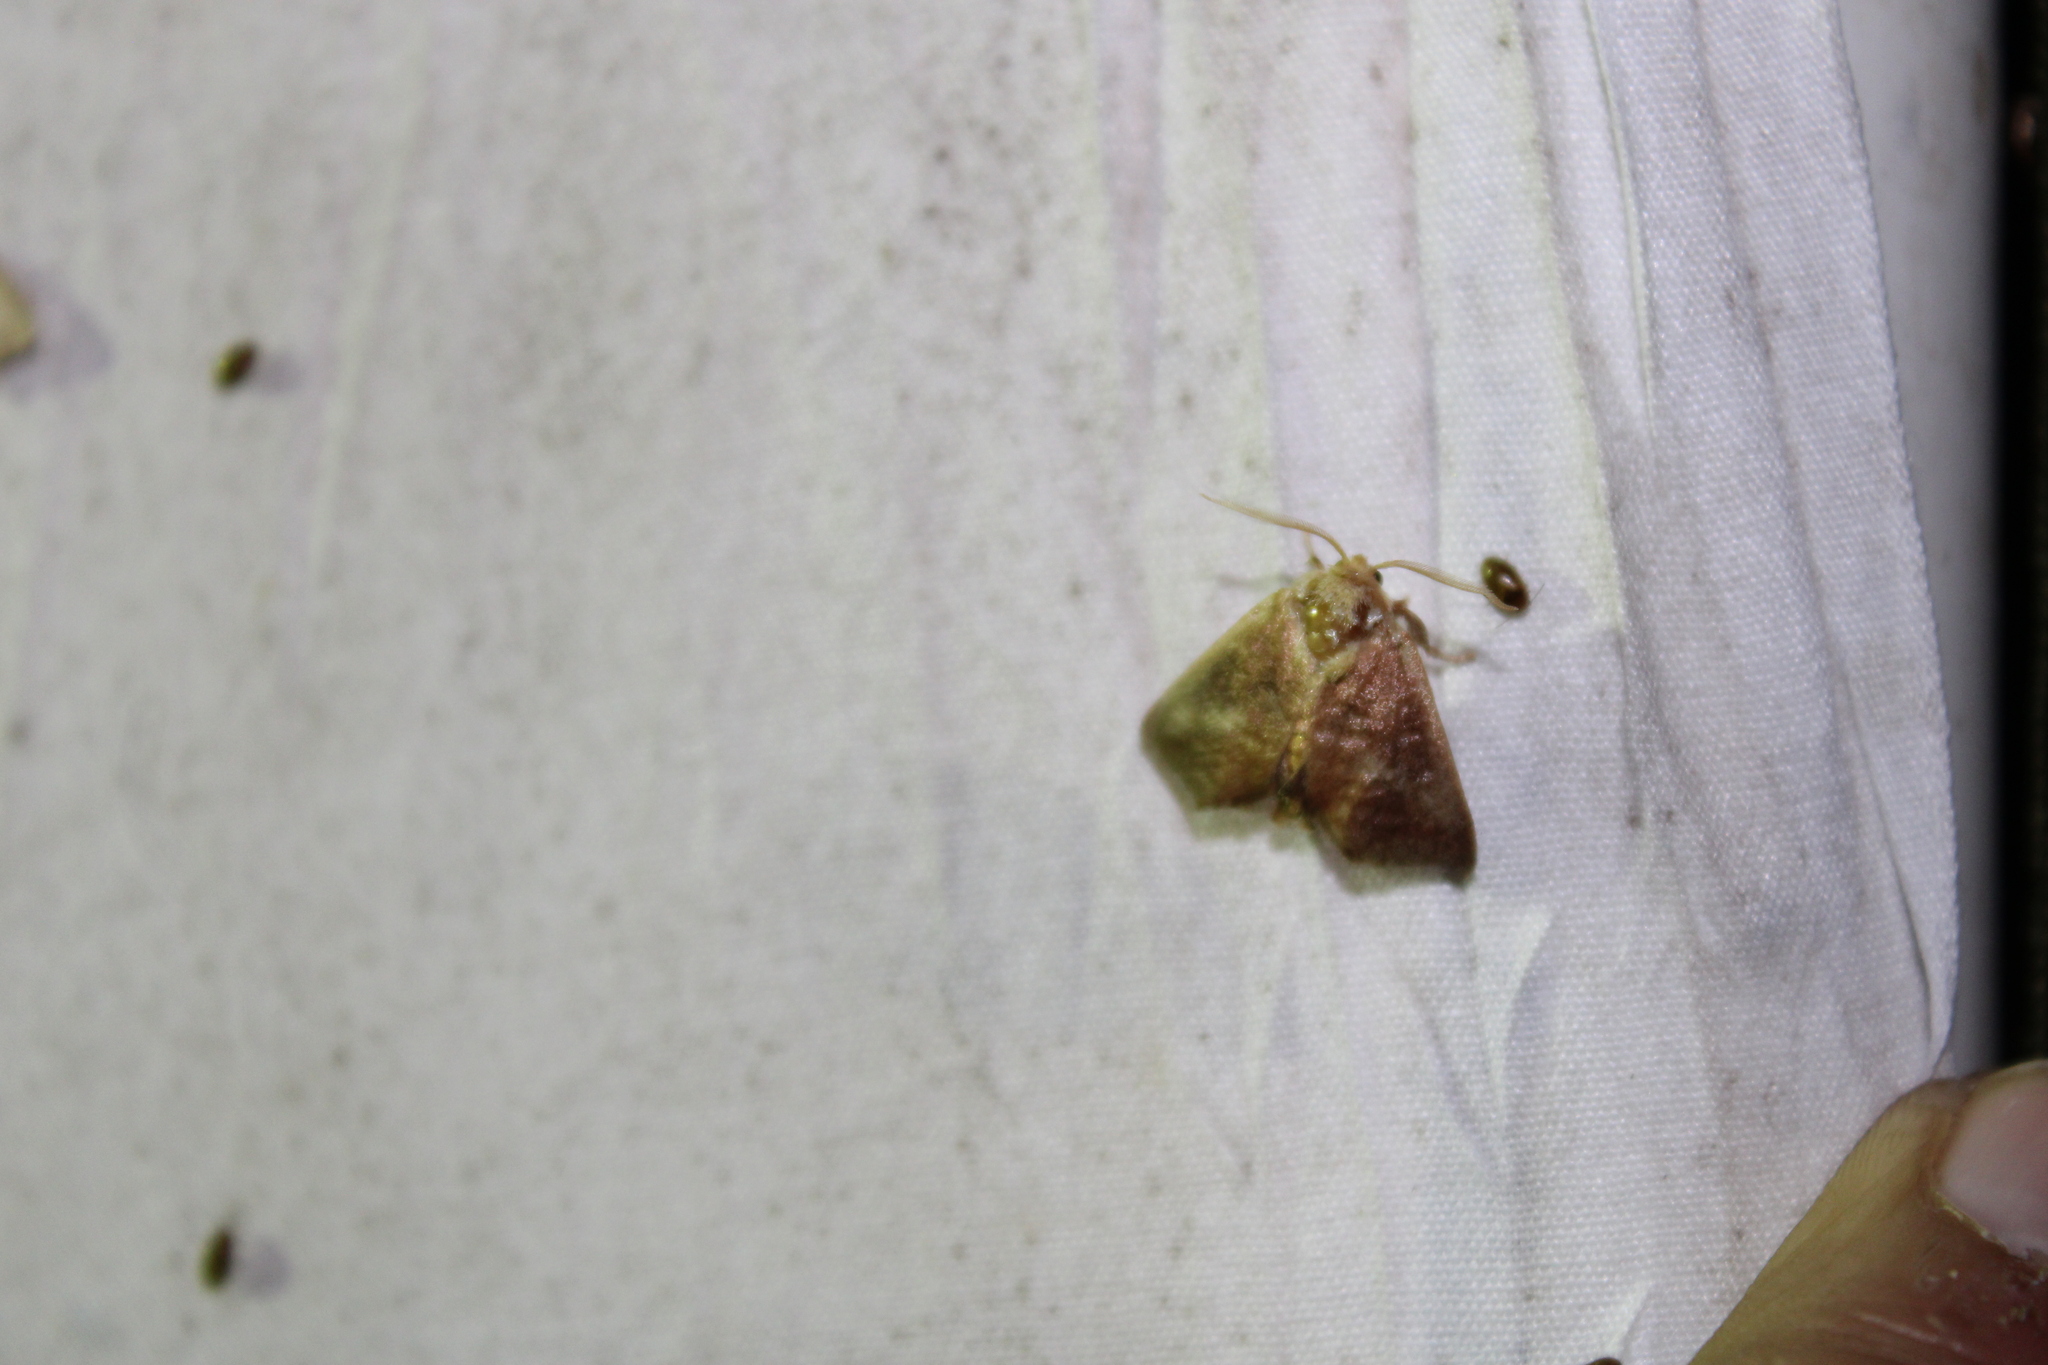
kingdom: Animalia
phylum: Arthropoda
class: Insecta
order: Lepidoptera
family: Limacodidae
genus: Isa
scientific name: Isa textula
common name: Crowned slug moth
